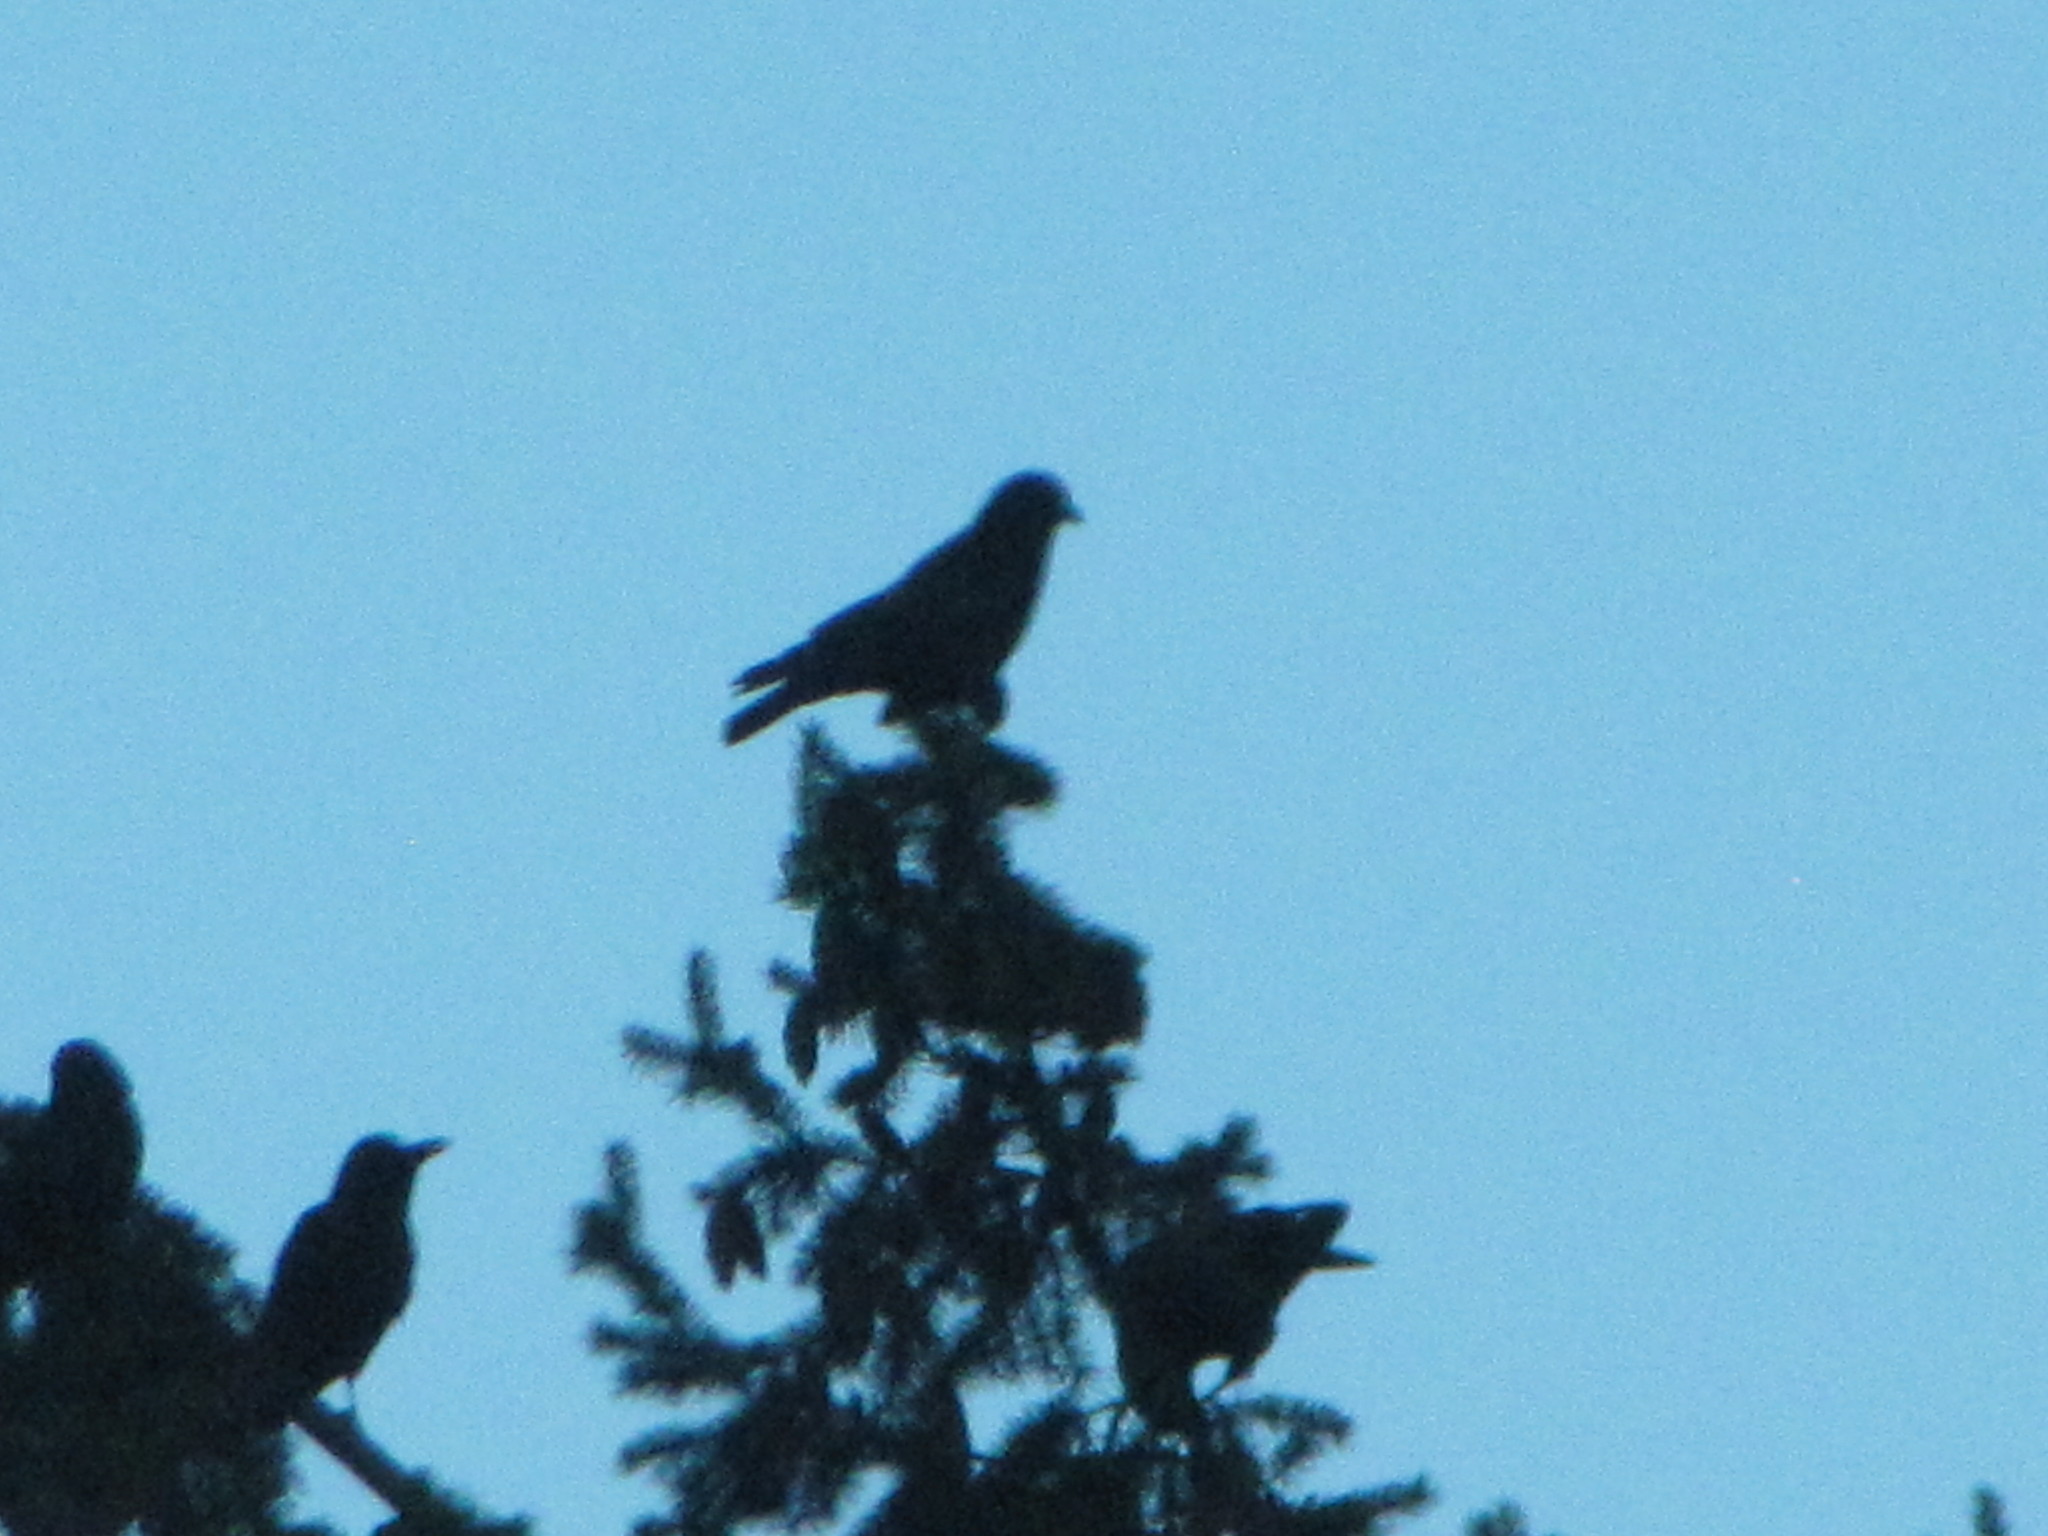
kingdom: Animalia
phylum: Chordata
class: Aves
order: Passeriformes
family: Corvidae
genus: Corvus
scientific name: Corvus brachyrhynchos
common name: American crow
